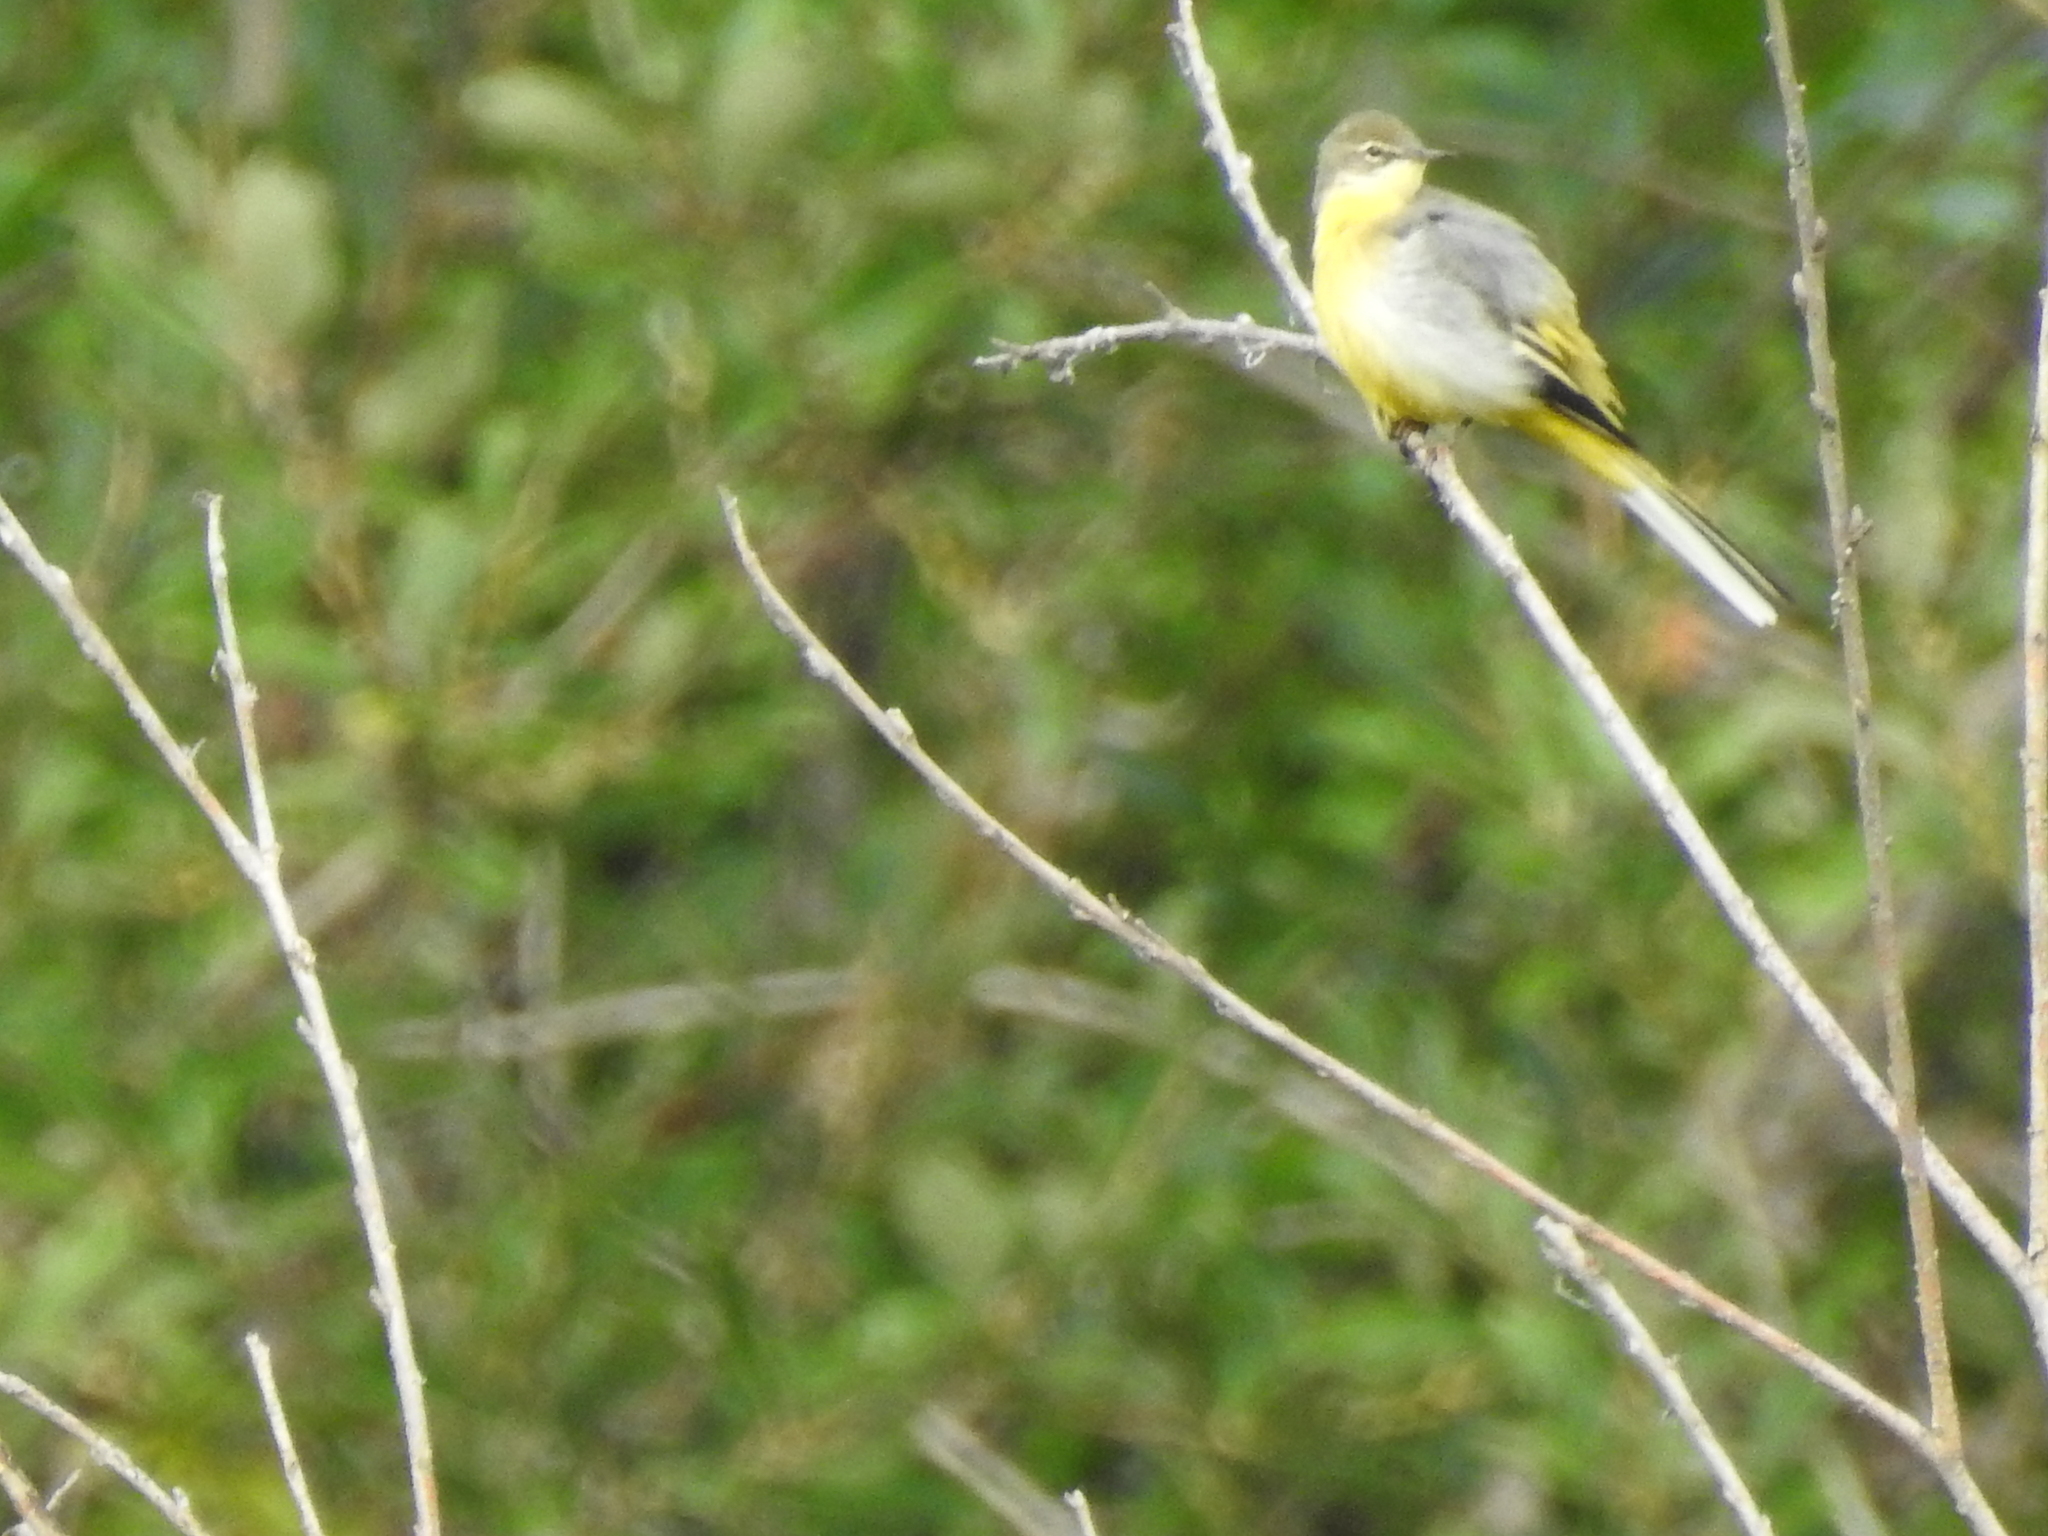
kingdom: Animalia
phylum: Chordata
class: Aves
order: Passeriformes
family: Motacillidae
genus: Motacilla
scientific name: Motacilla cinerea
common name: Grey wagtail
